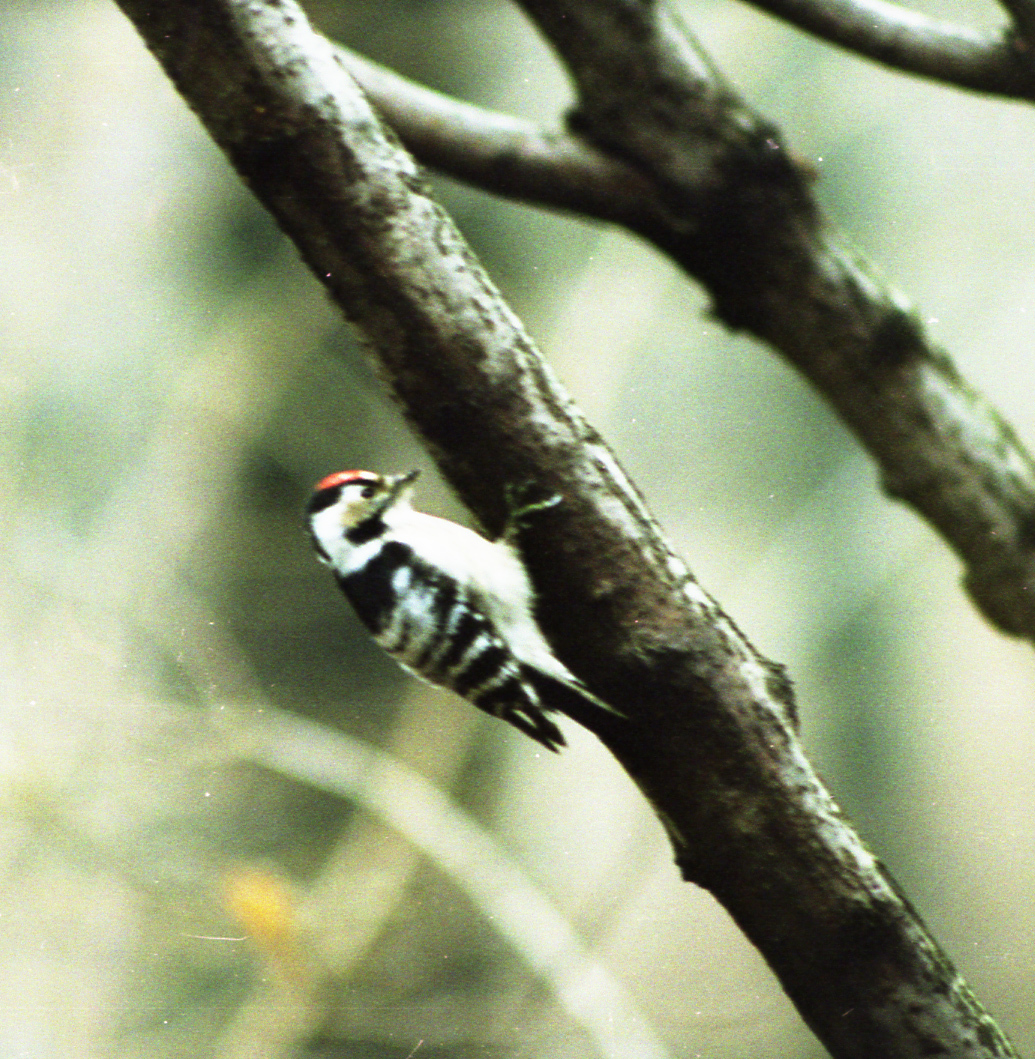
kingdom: Animalia
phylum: Chordata
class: Aves
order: Piciformes
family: Picidae
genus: Dryobates
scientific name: Dryobates minor
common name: Lesser spotted woodpecker
